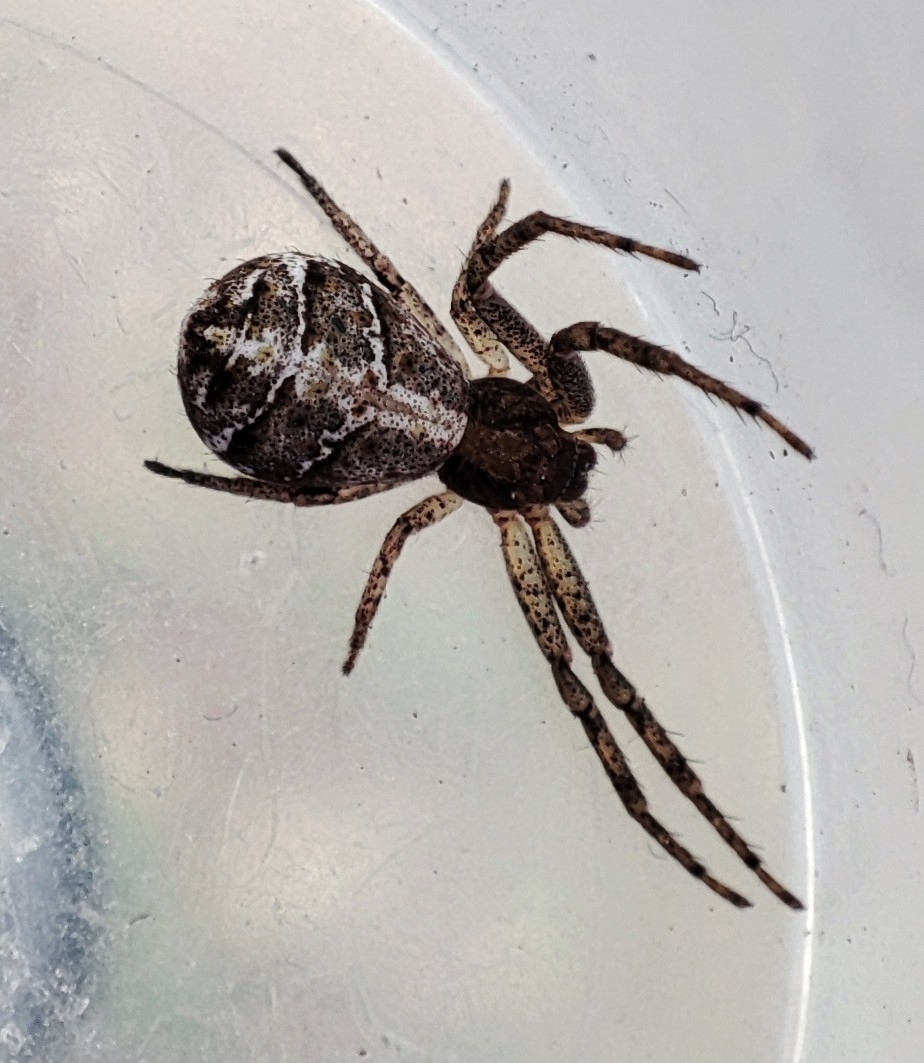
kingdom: Animalia
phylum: Arthropoda
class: Arachnida
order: Araneae
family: Thomisidae
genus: Tmarus
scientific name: Tmarus
